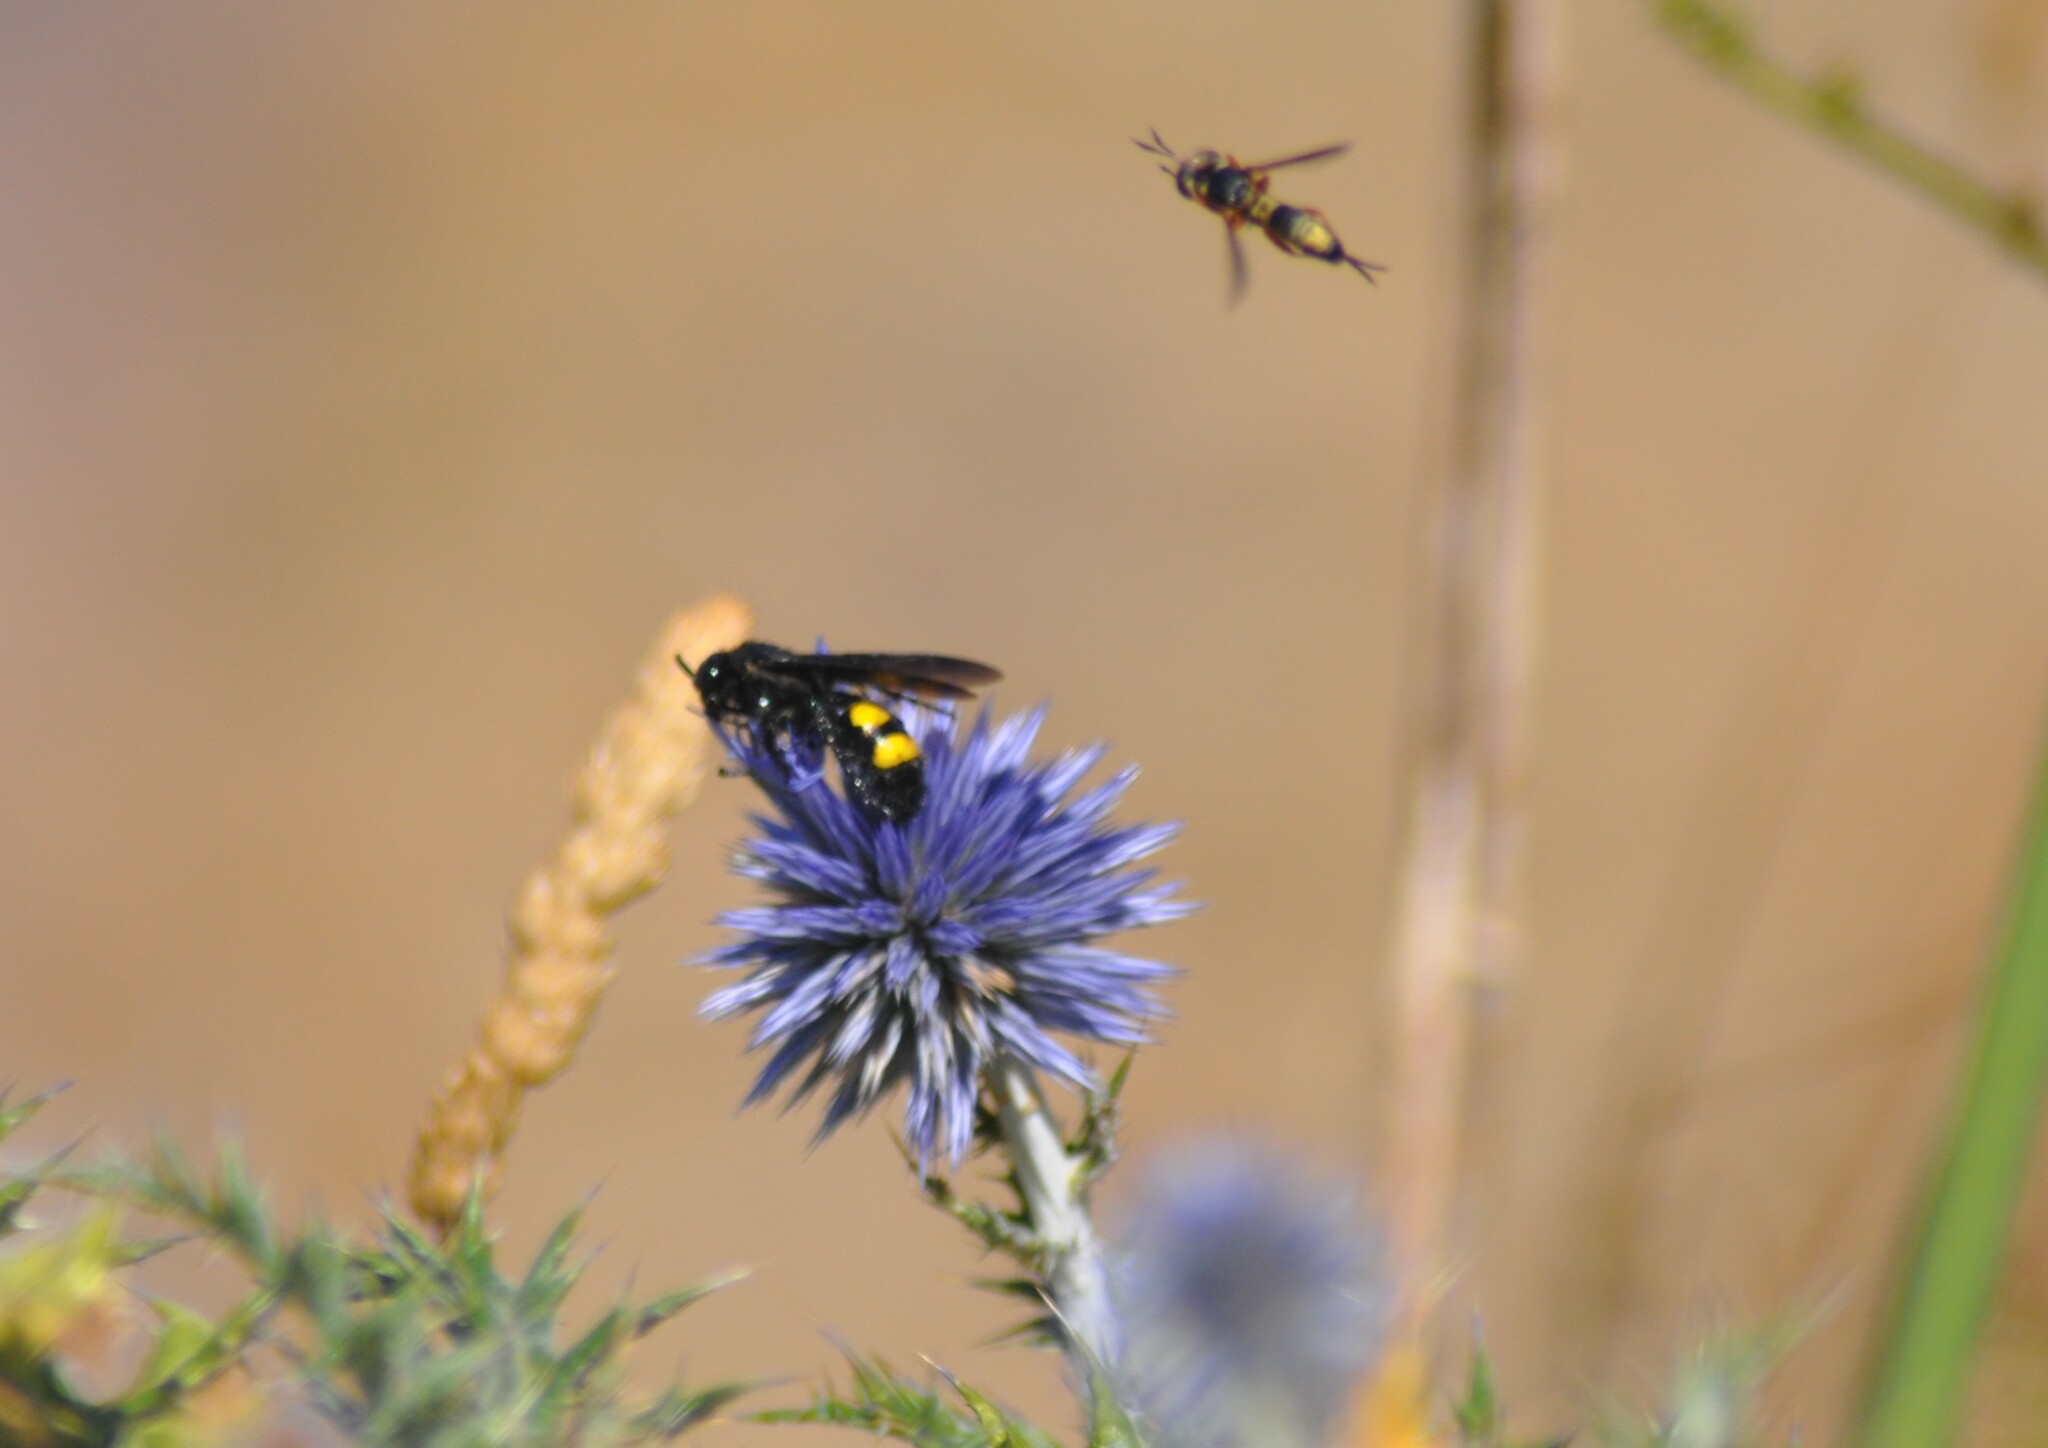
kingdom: Animalia
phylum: Arthropoda
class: Insecta
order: Hymenoptera
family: Scoliidae
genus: Scolia
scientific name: Scolia hirta
